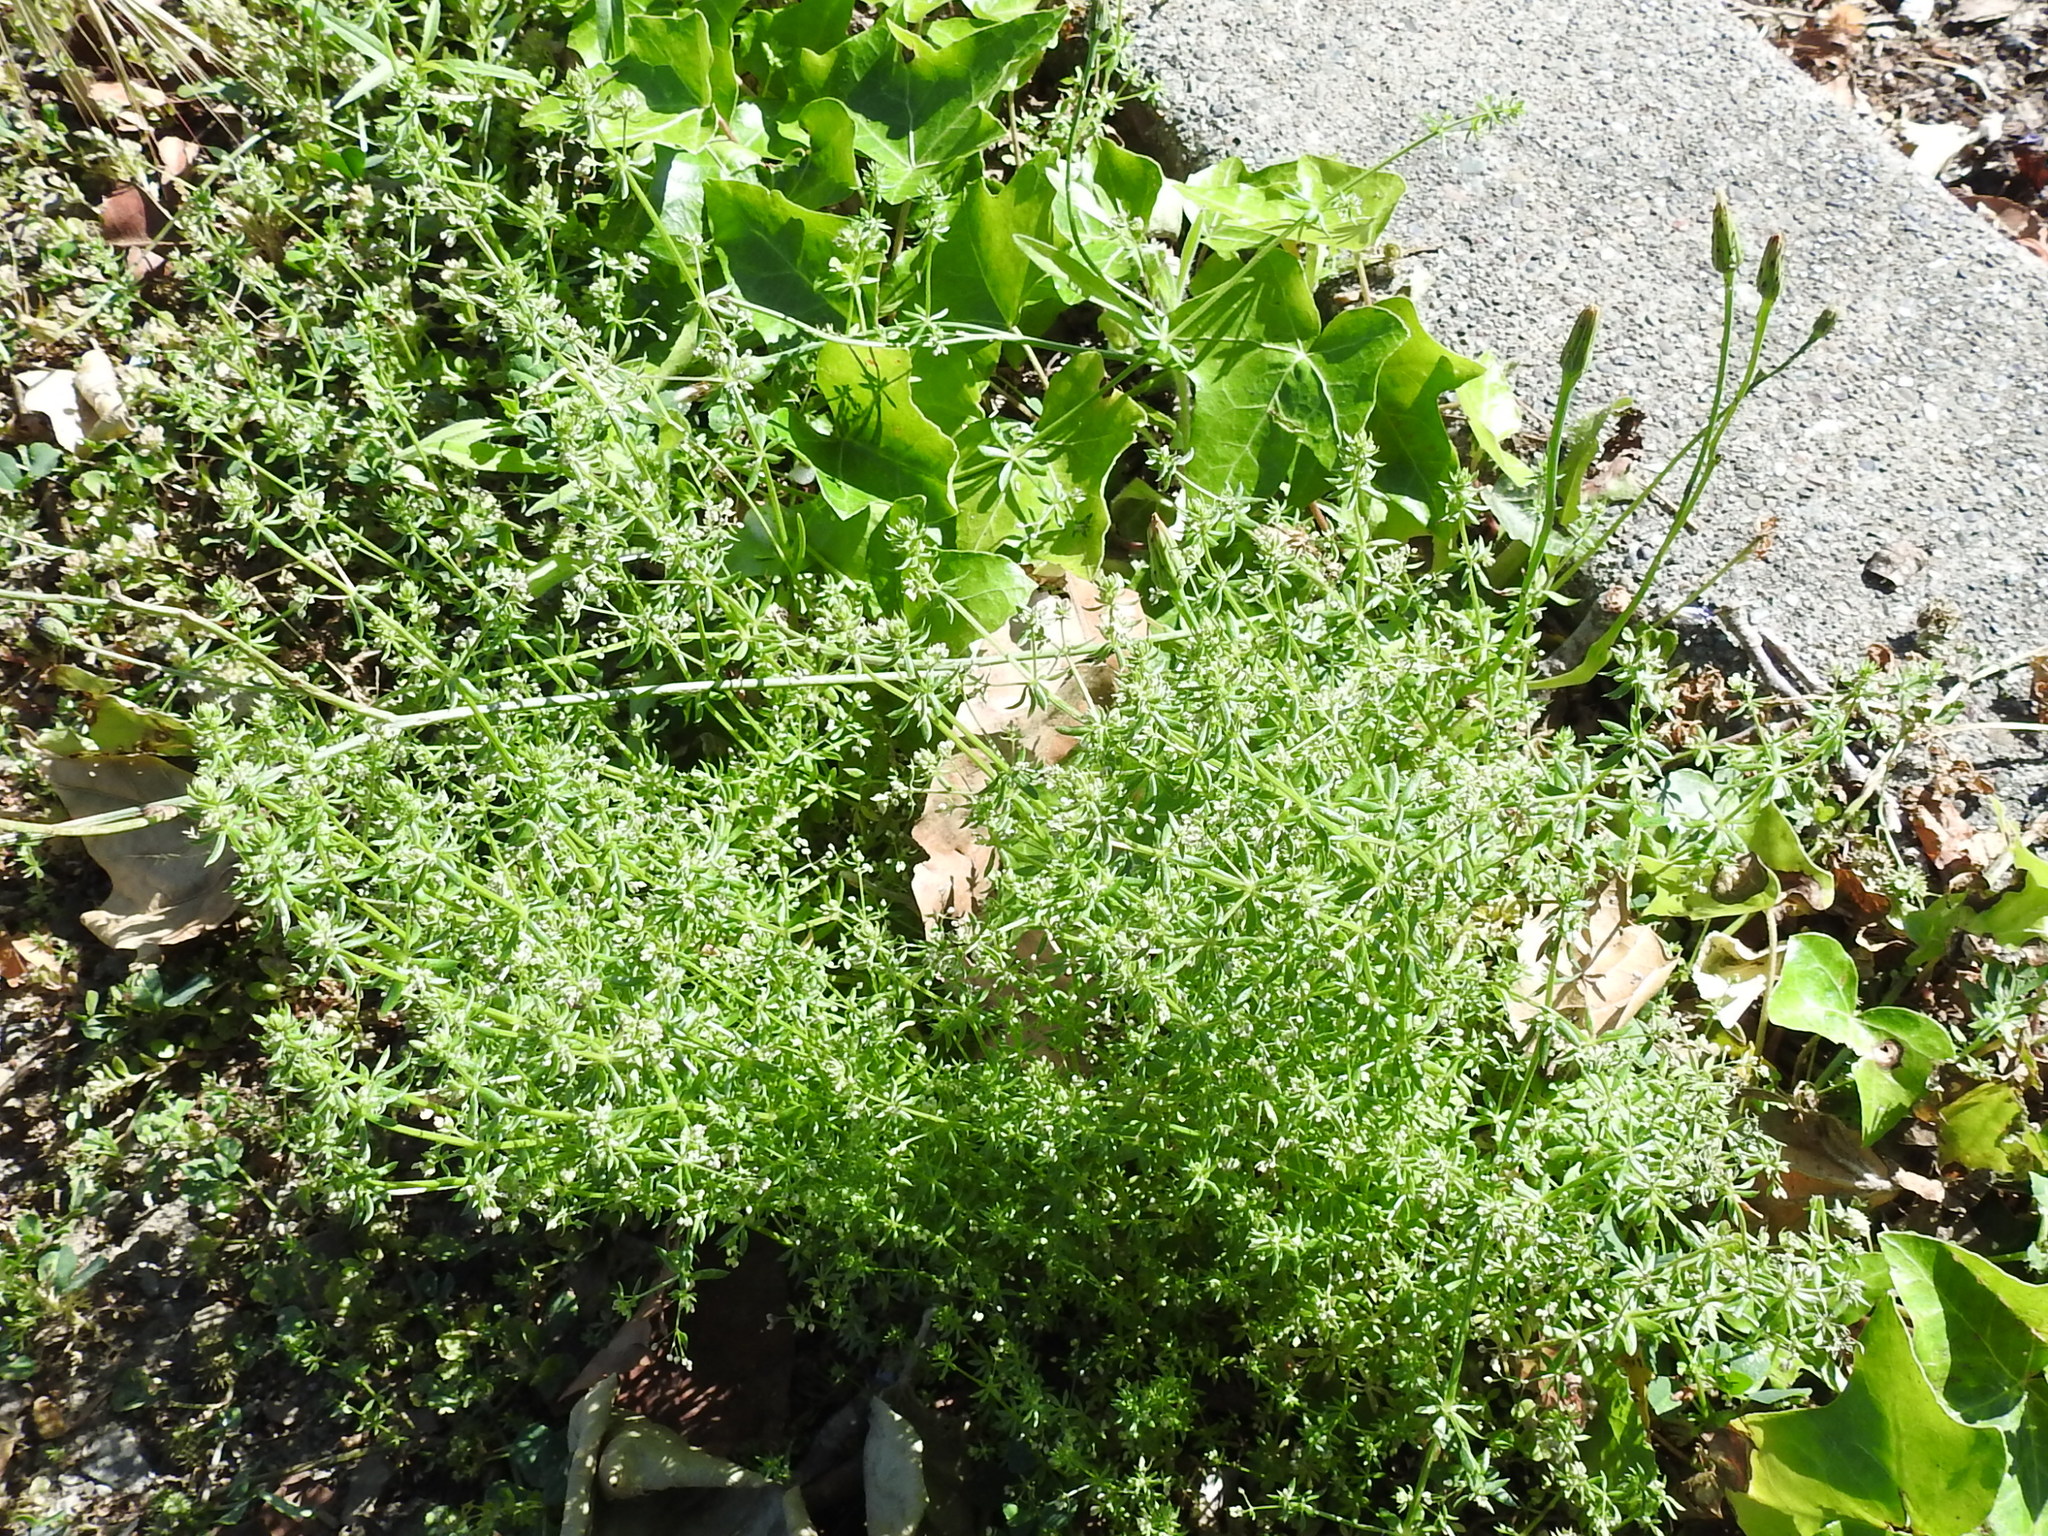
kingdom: Plantae
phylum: Tracheophyta
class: Magnoliopsida
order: Gentianales
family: Rubiaceae
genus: Galium
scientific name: Galium parisiense
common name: Wall bedstraw
